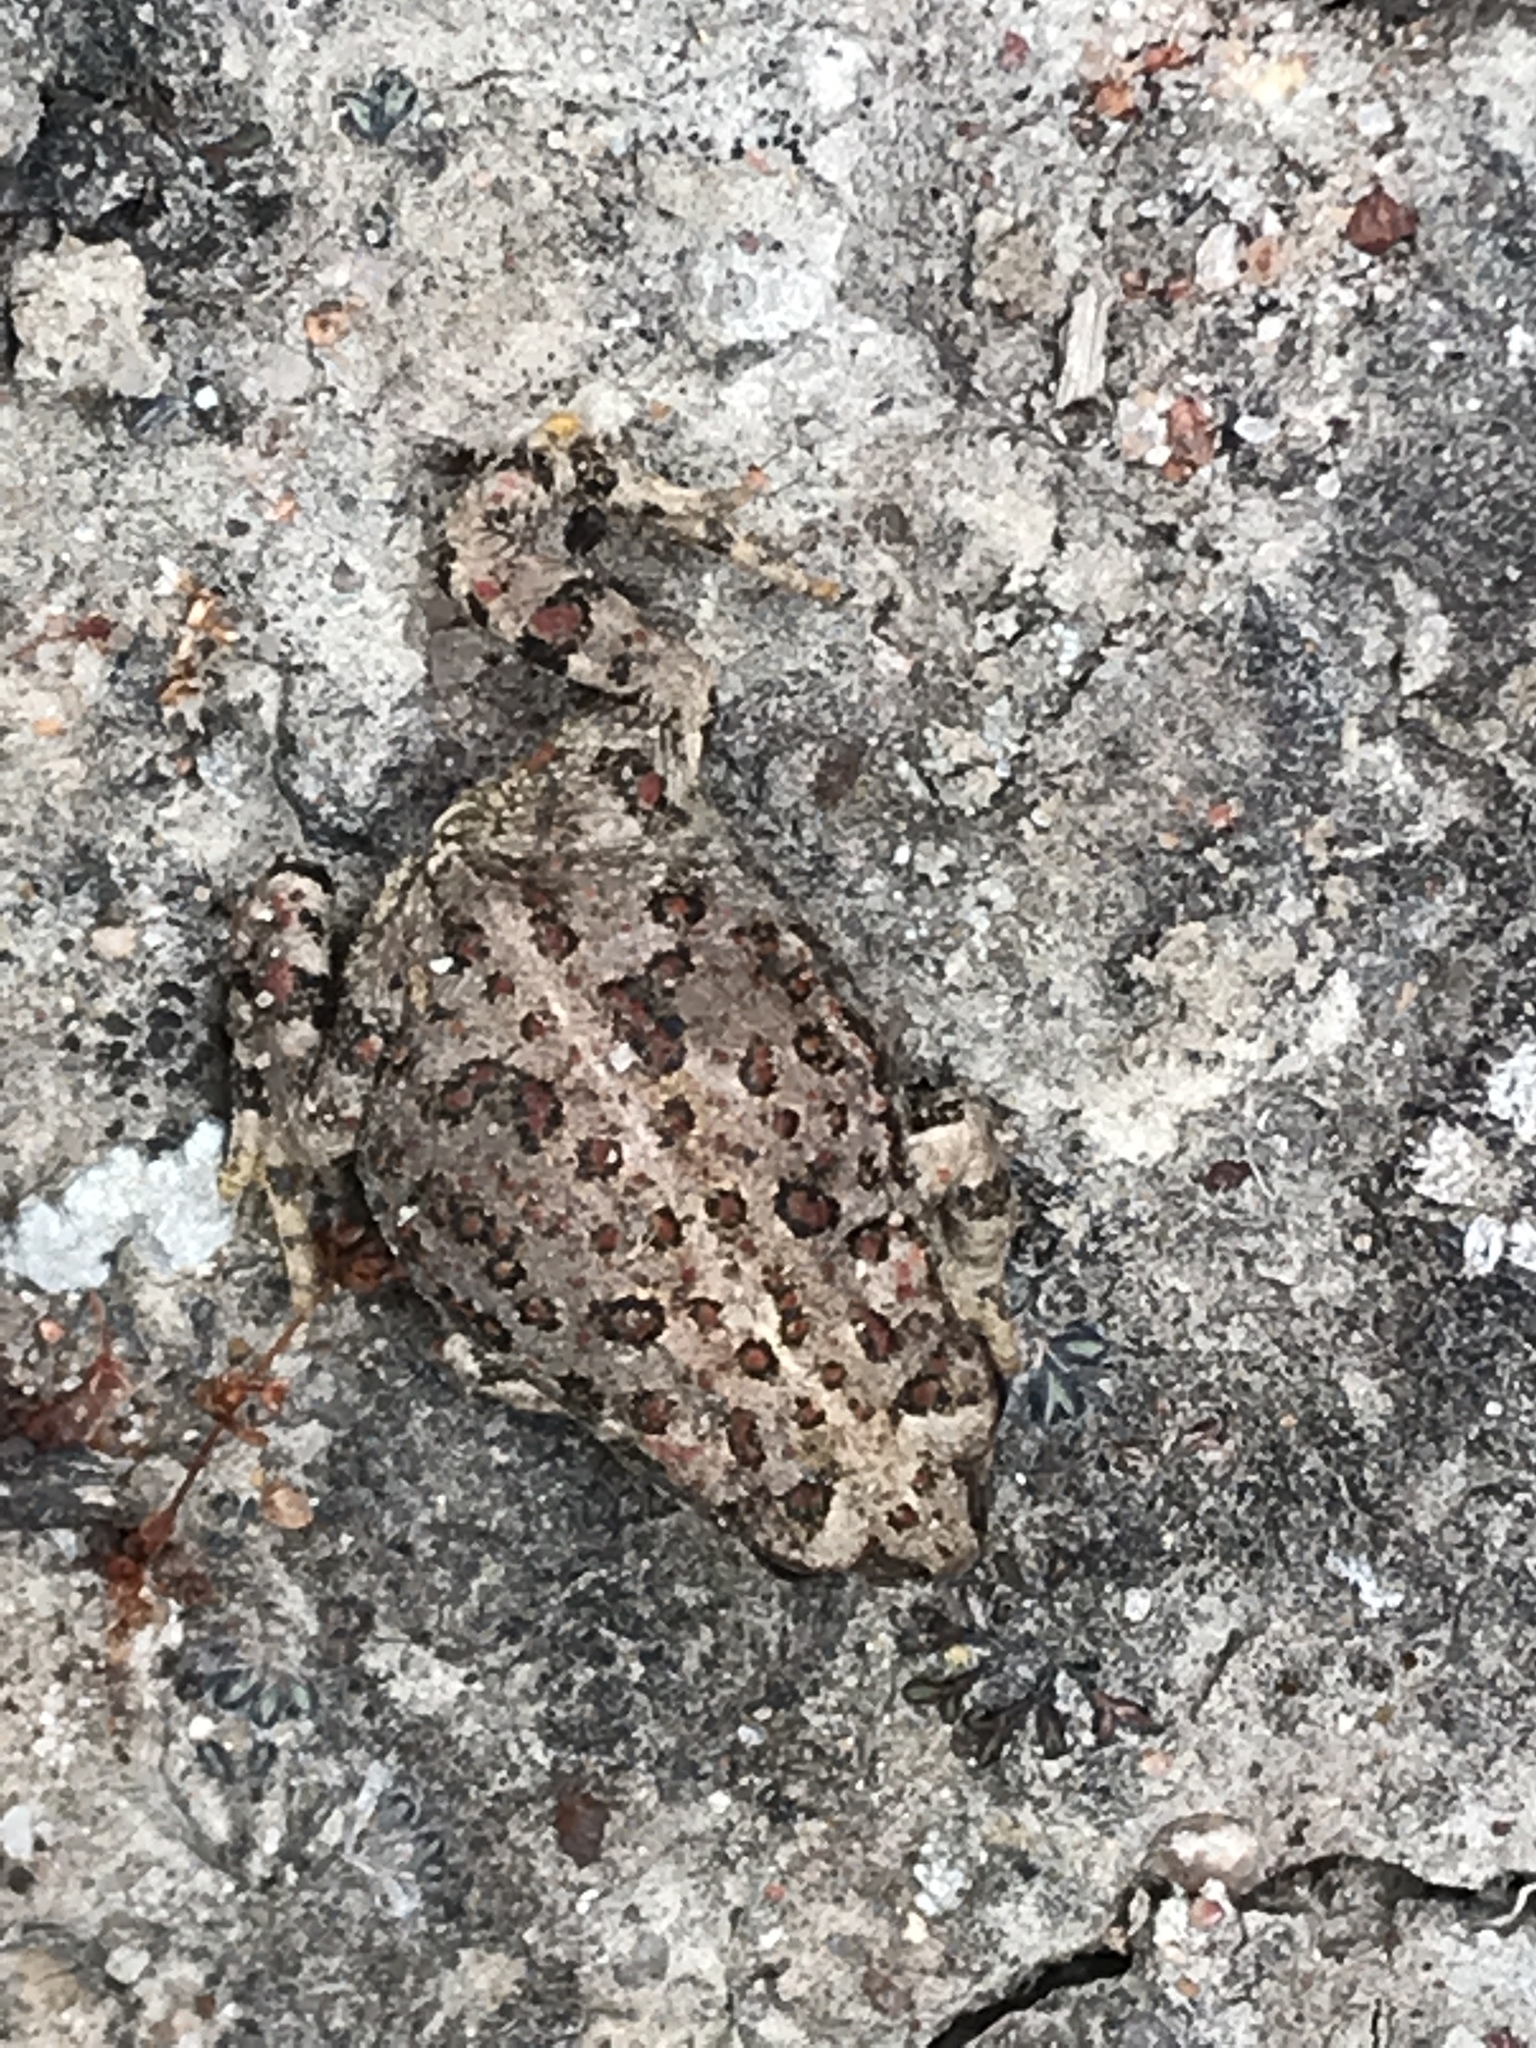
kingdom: Animalia
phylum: Chordata
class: Amphibia
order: Anura
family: Bufonidae
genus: Anaxyrus
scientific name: Anaxyrus boreas
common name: Western toad
